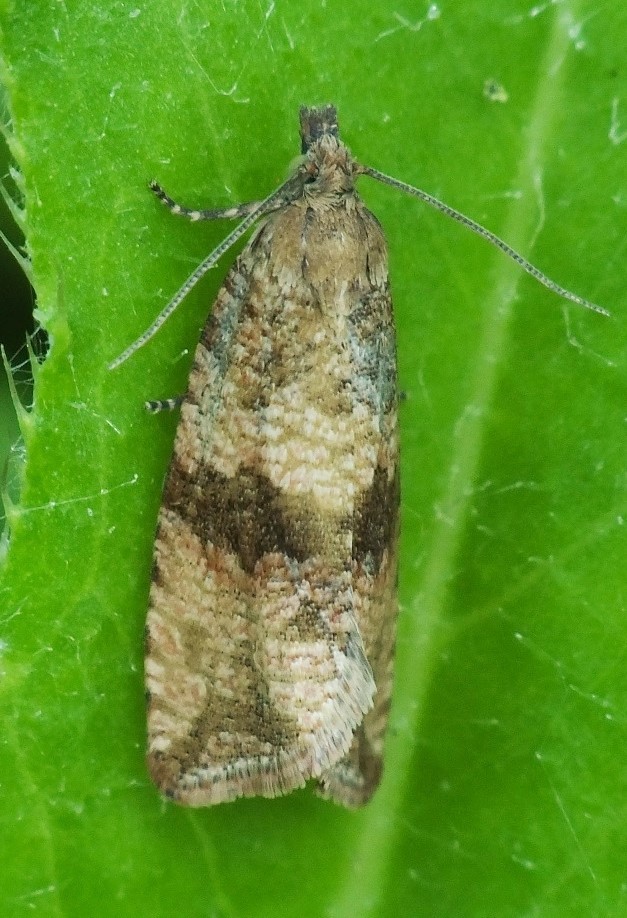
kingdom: Animalia
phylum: Arthropoda
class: Insecta
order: Lepidoptera
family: Tortricidae
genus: Celypha
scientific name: Celypha striana
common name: Barred marble
